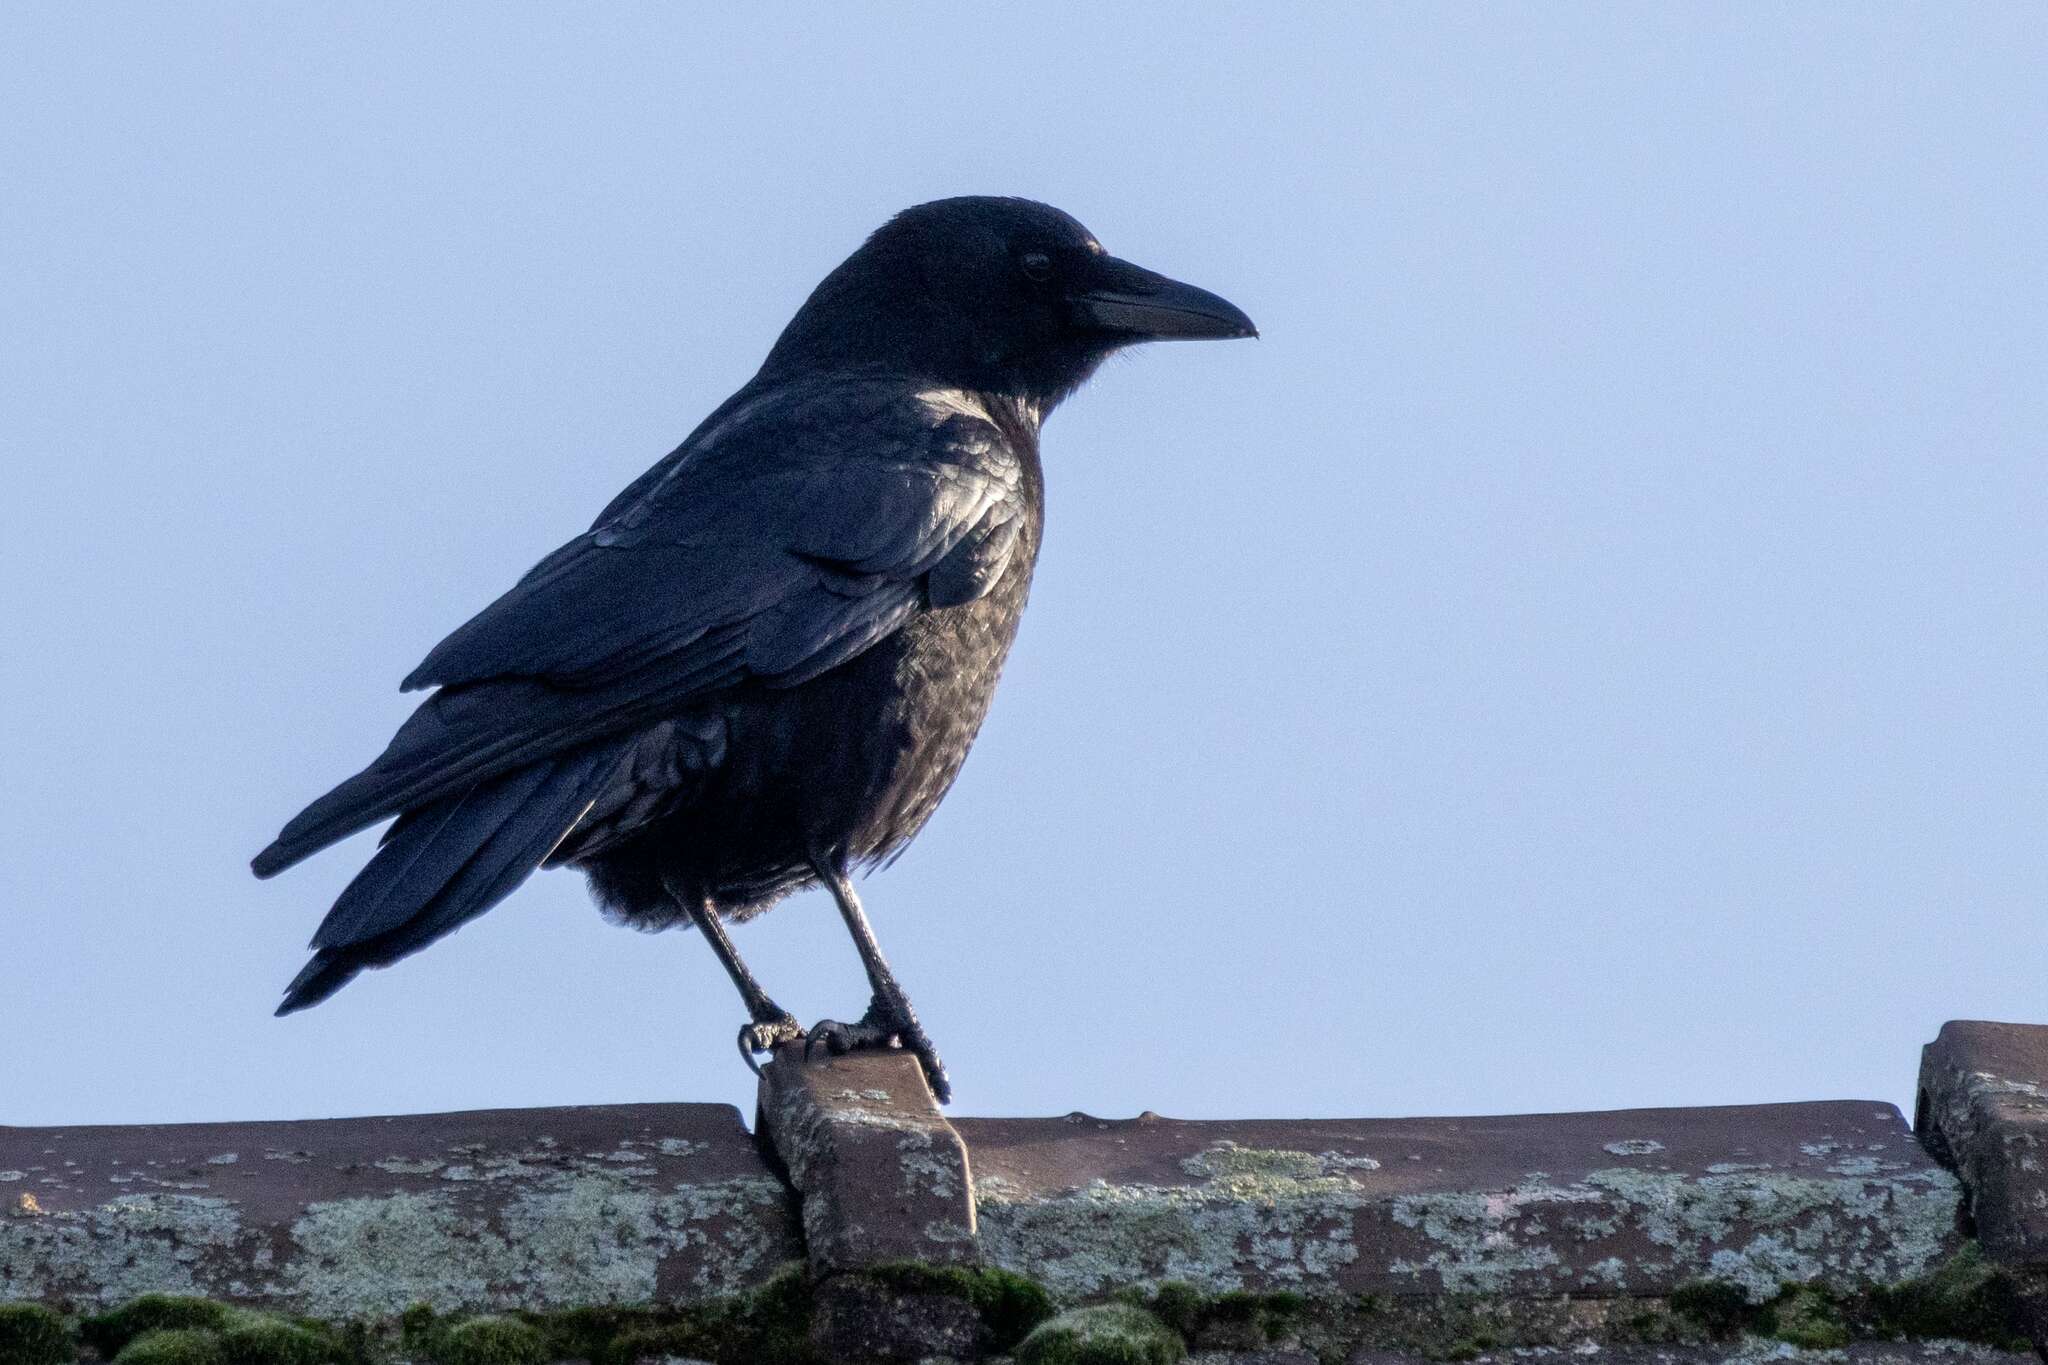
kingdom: Animalia
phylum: Chordata
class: Aves
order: Passeriformes
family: Corvidae
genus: Corvus
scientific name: Corvus corone
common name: Carrion crow
